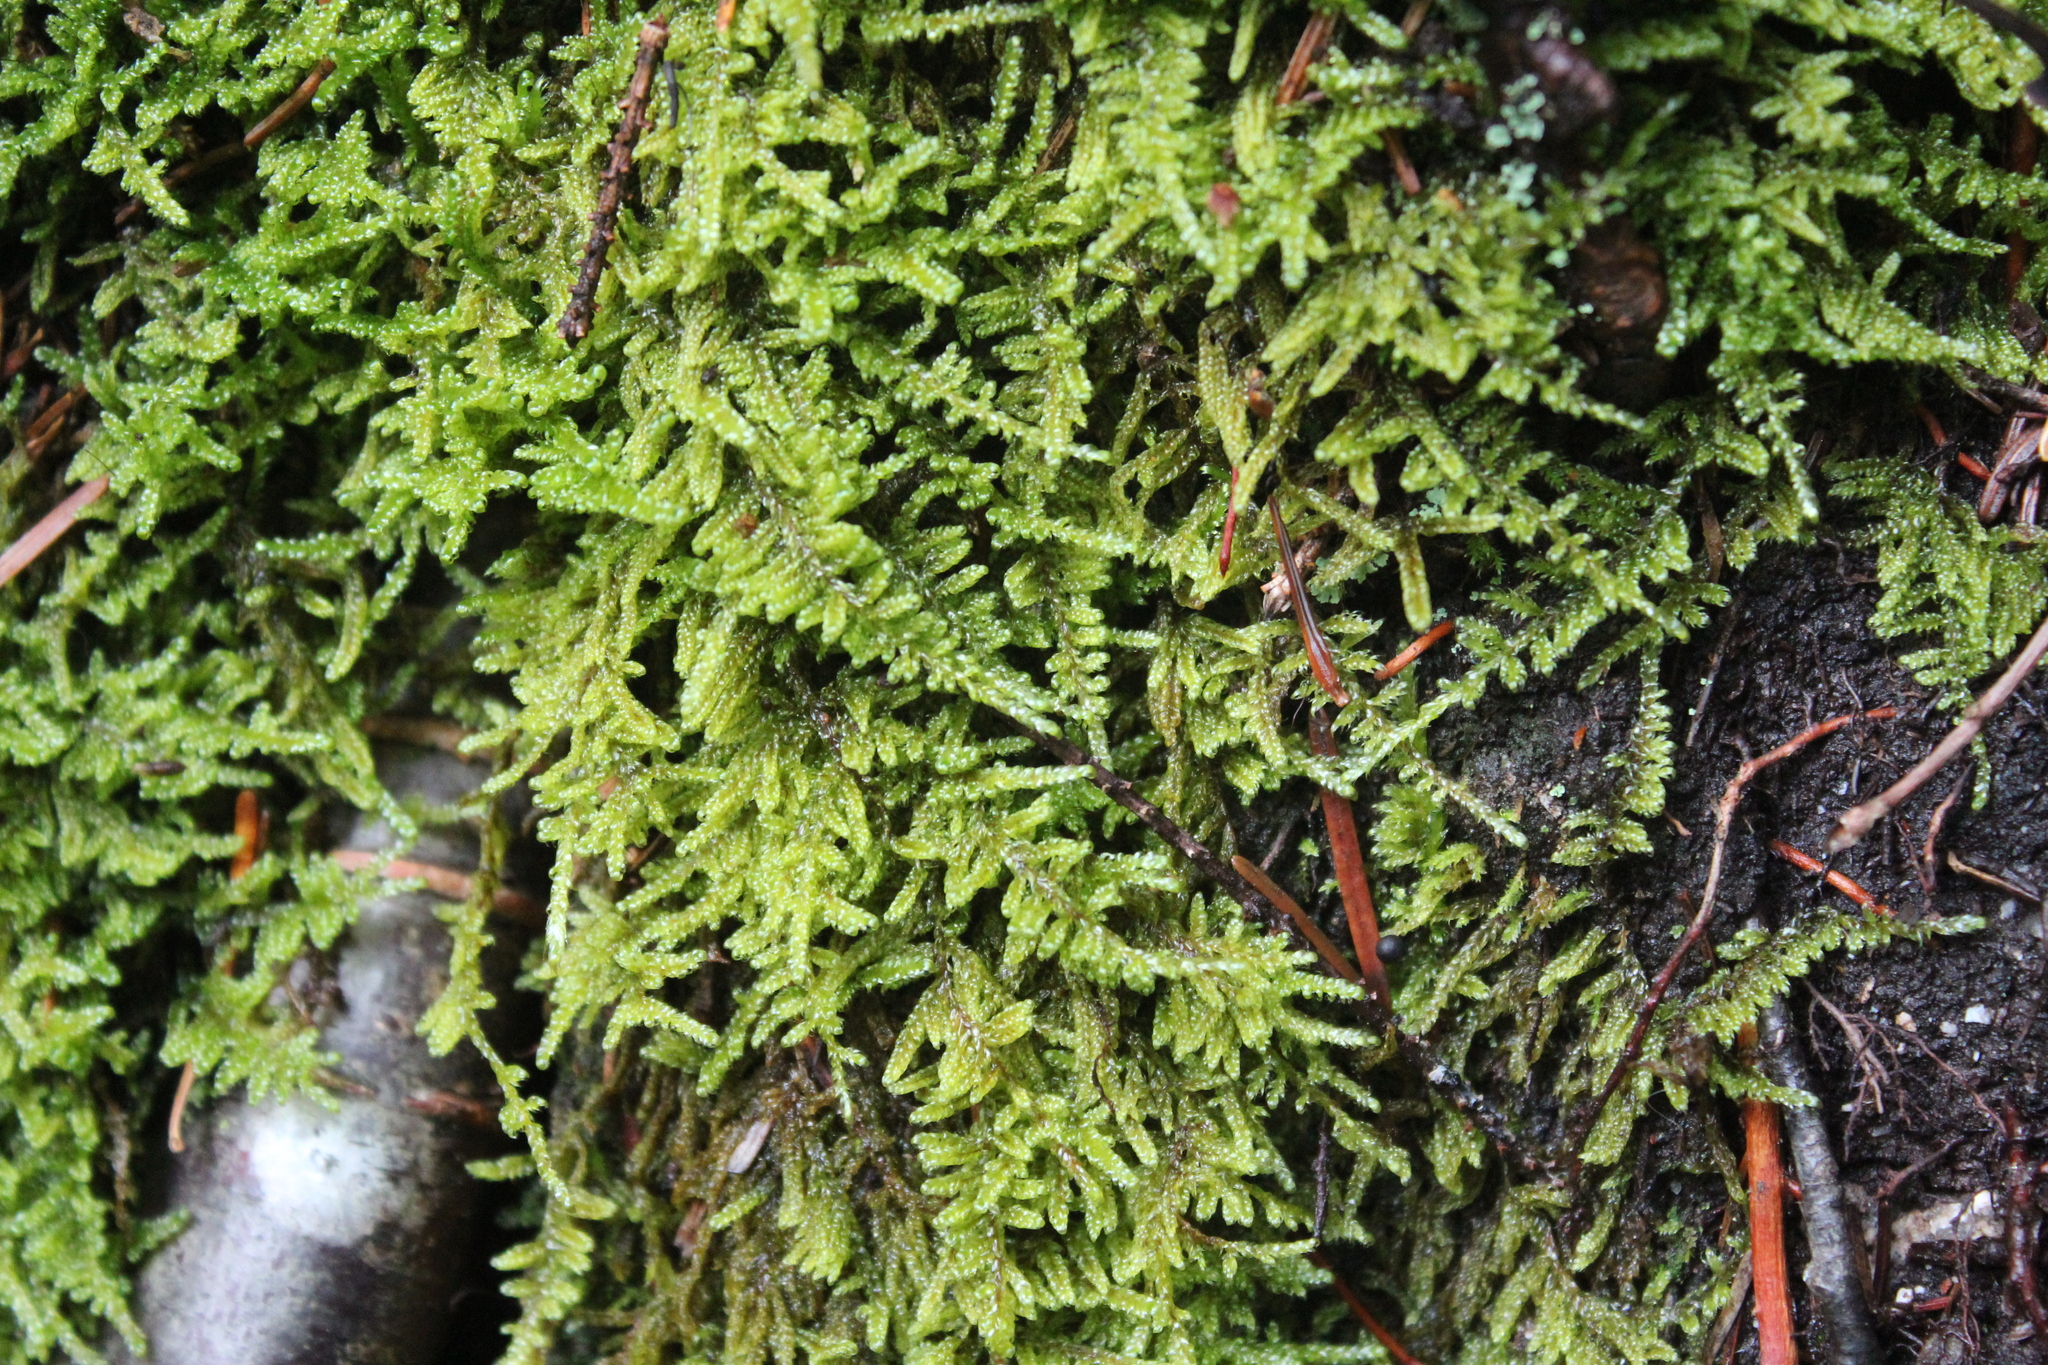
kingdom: Plantae
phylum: Bryophyta
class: Bryopsida
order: Hypnales
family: Callicladiaceae
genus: Callicladium
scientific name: Callicladium imponens
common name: Brocade moss
